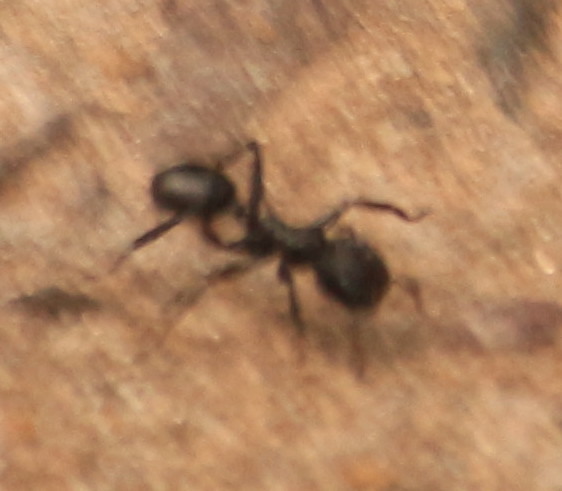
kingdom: Animalia
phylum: Arthropoda
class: Insecta
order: Hymenoptera
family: Formicidae
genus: Cephalotes
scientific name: Cephalotes
